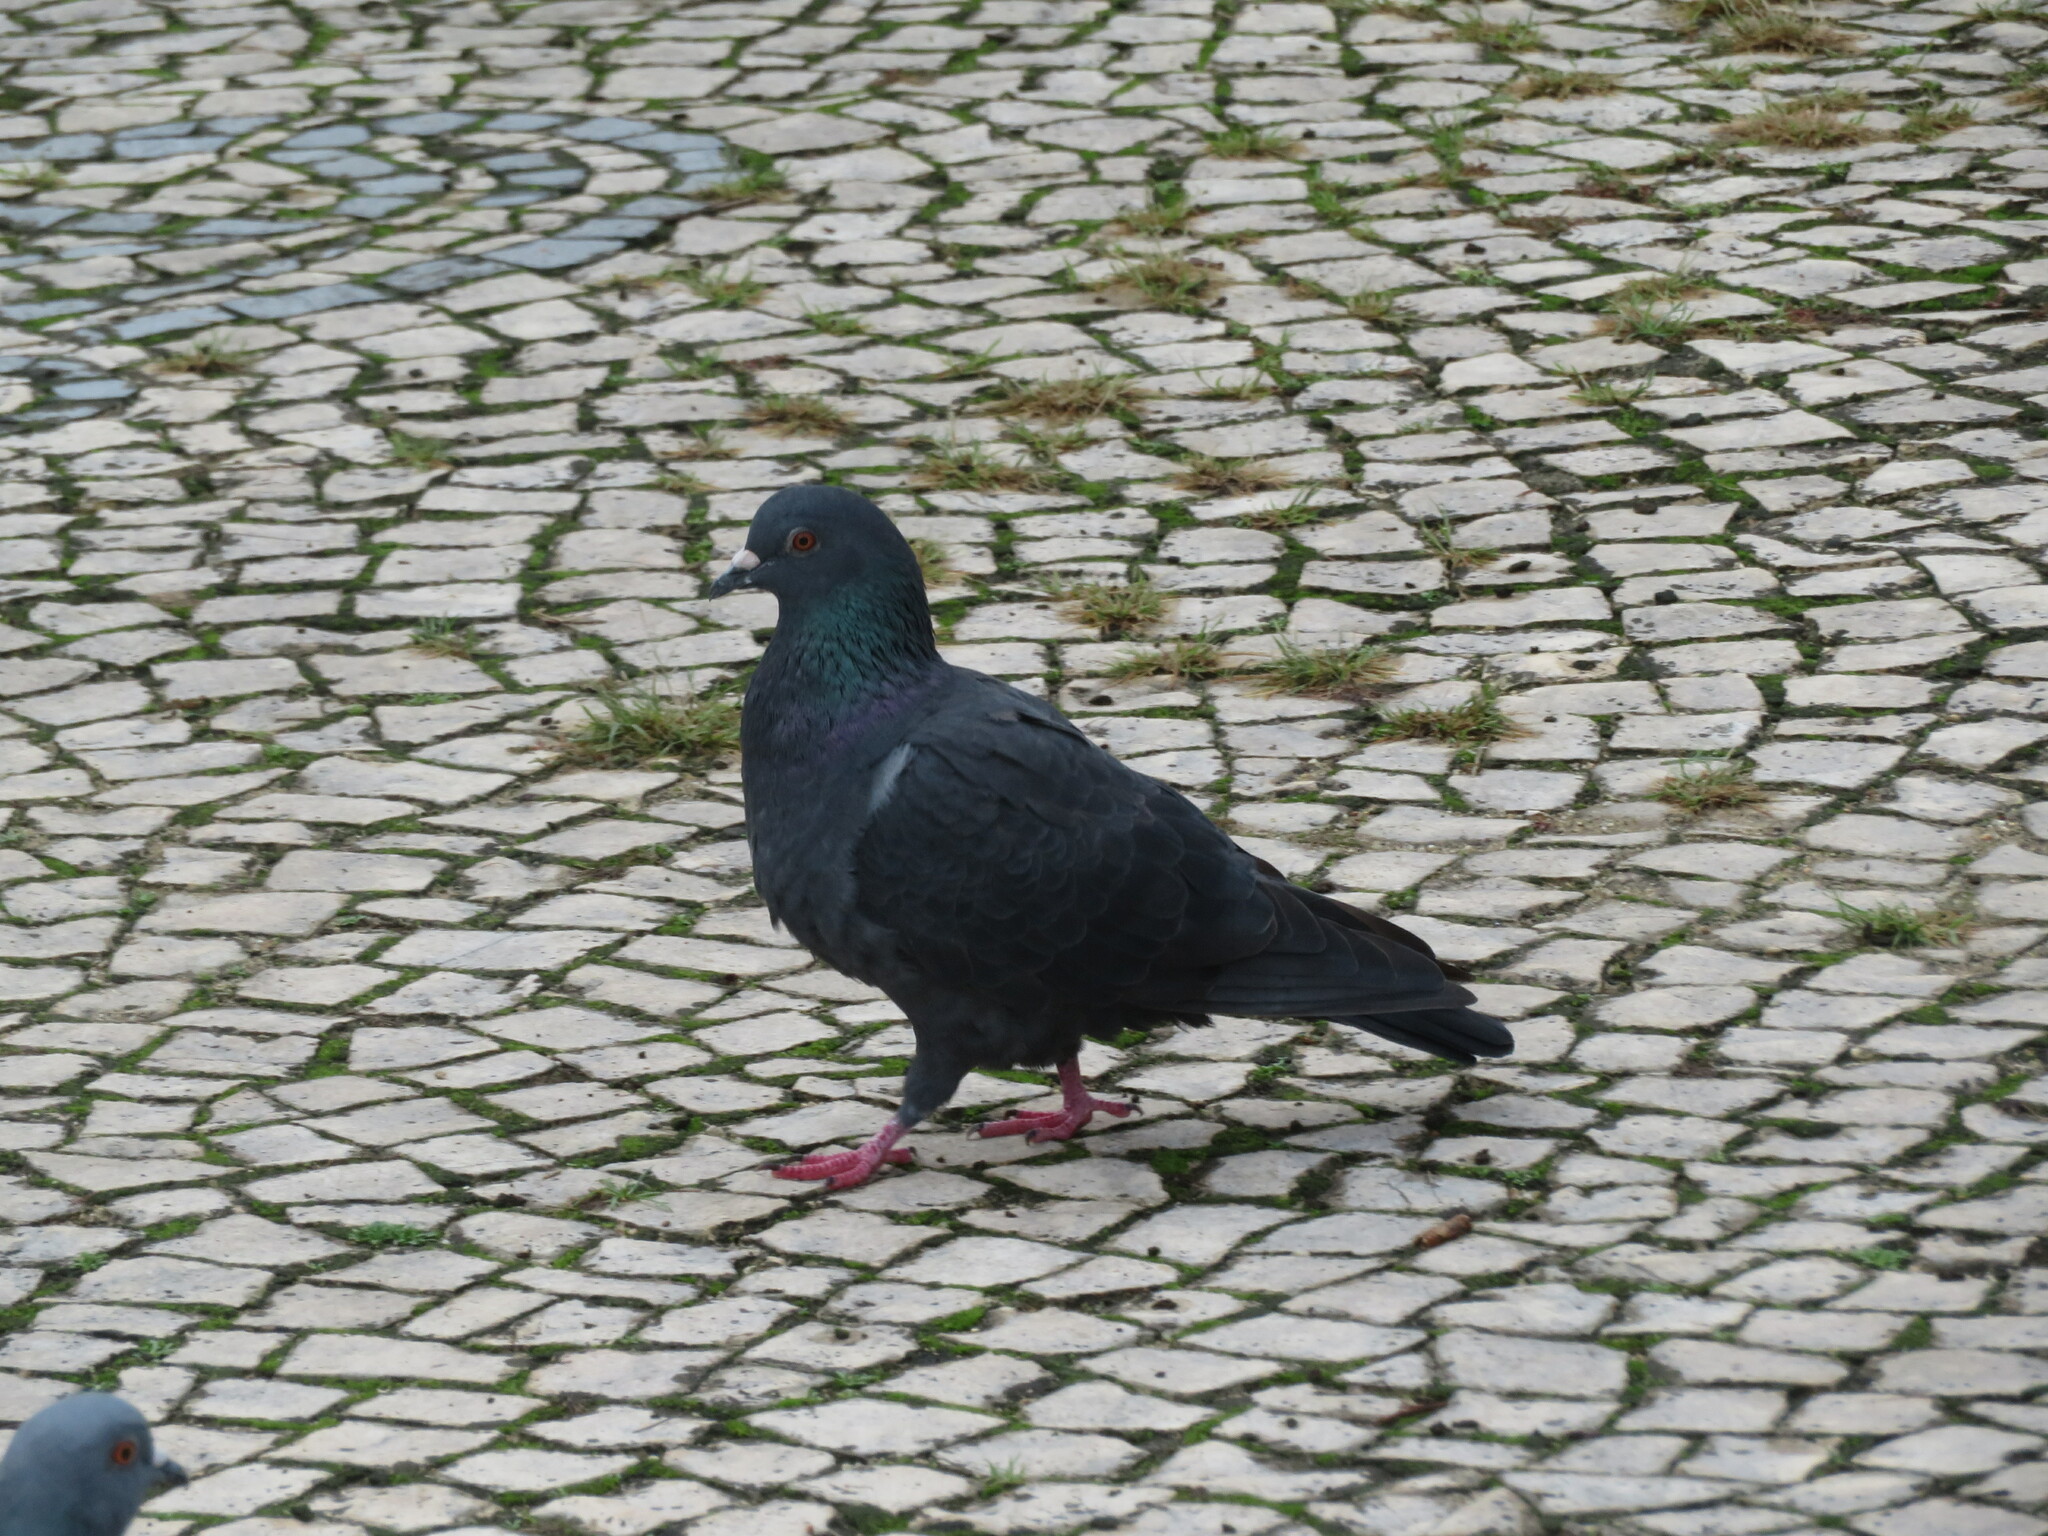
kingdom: Animalia
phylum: Chordata
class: Aves
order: Columbiformes
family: Columbidae
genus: Columba
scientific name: Columba livia
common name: Rock pigeon
